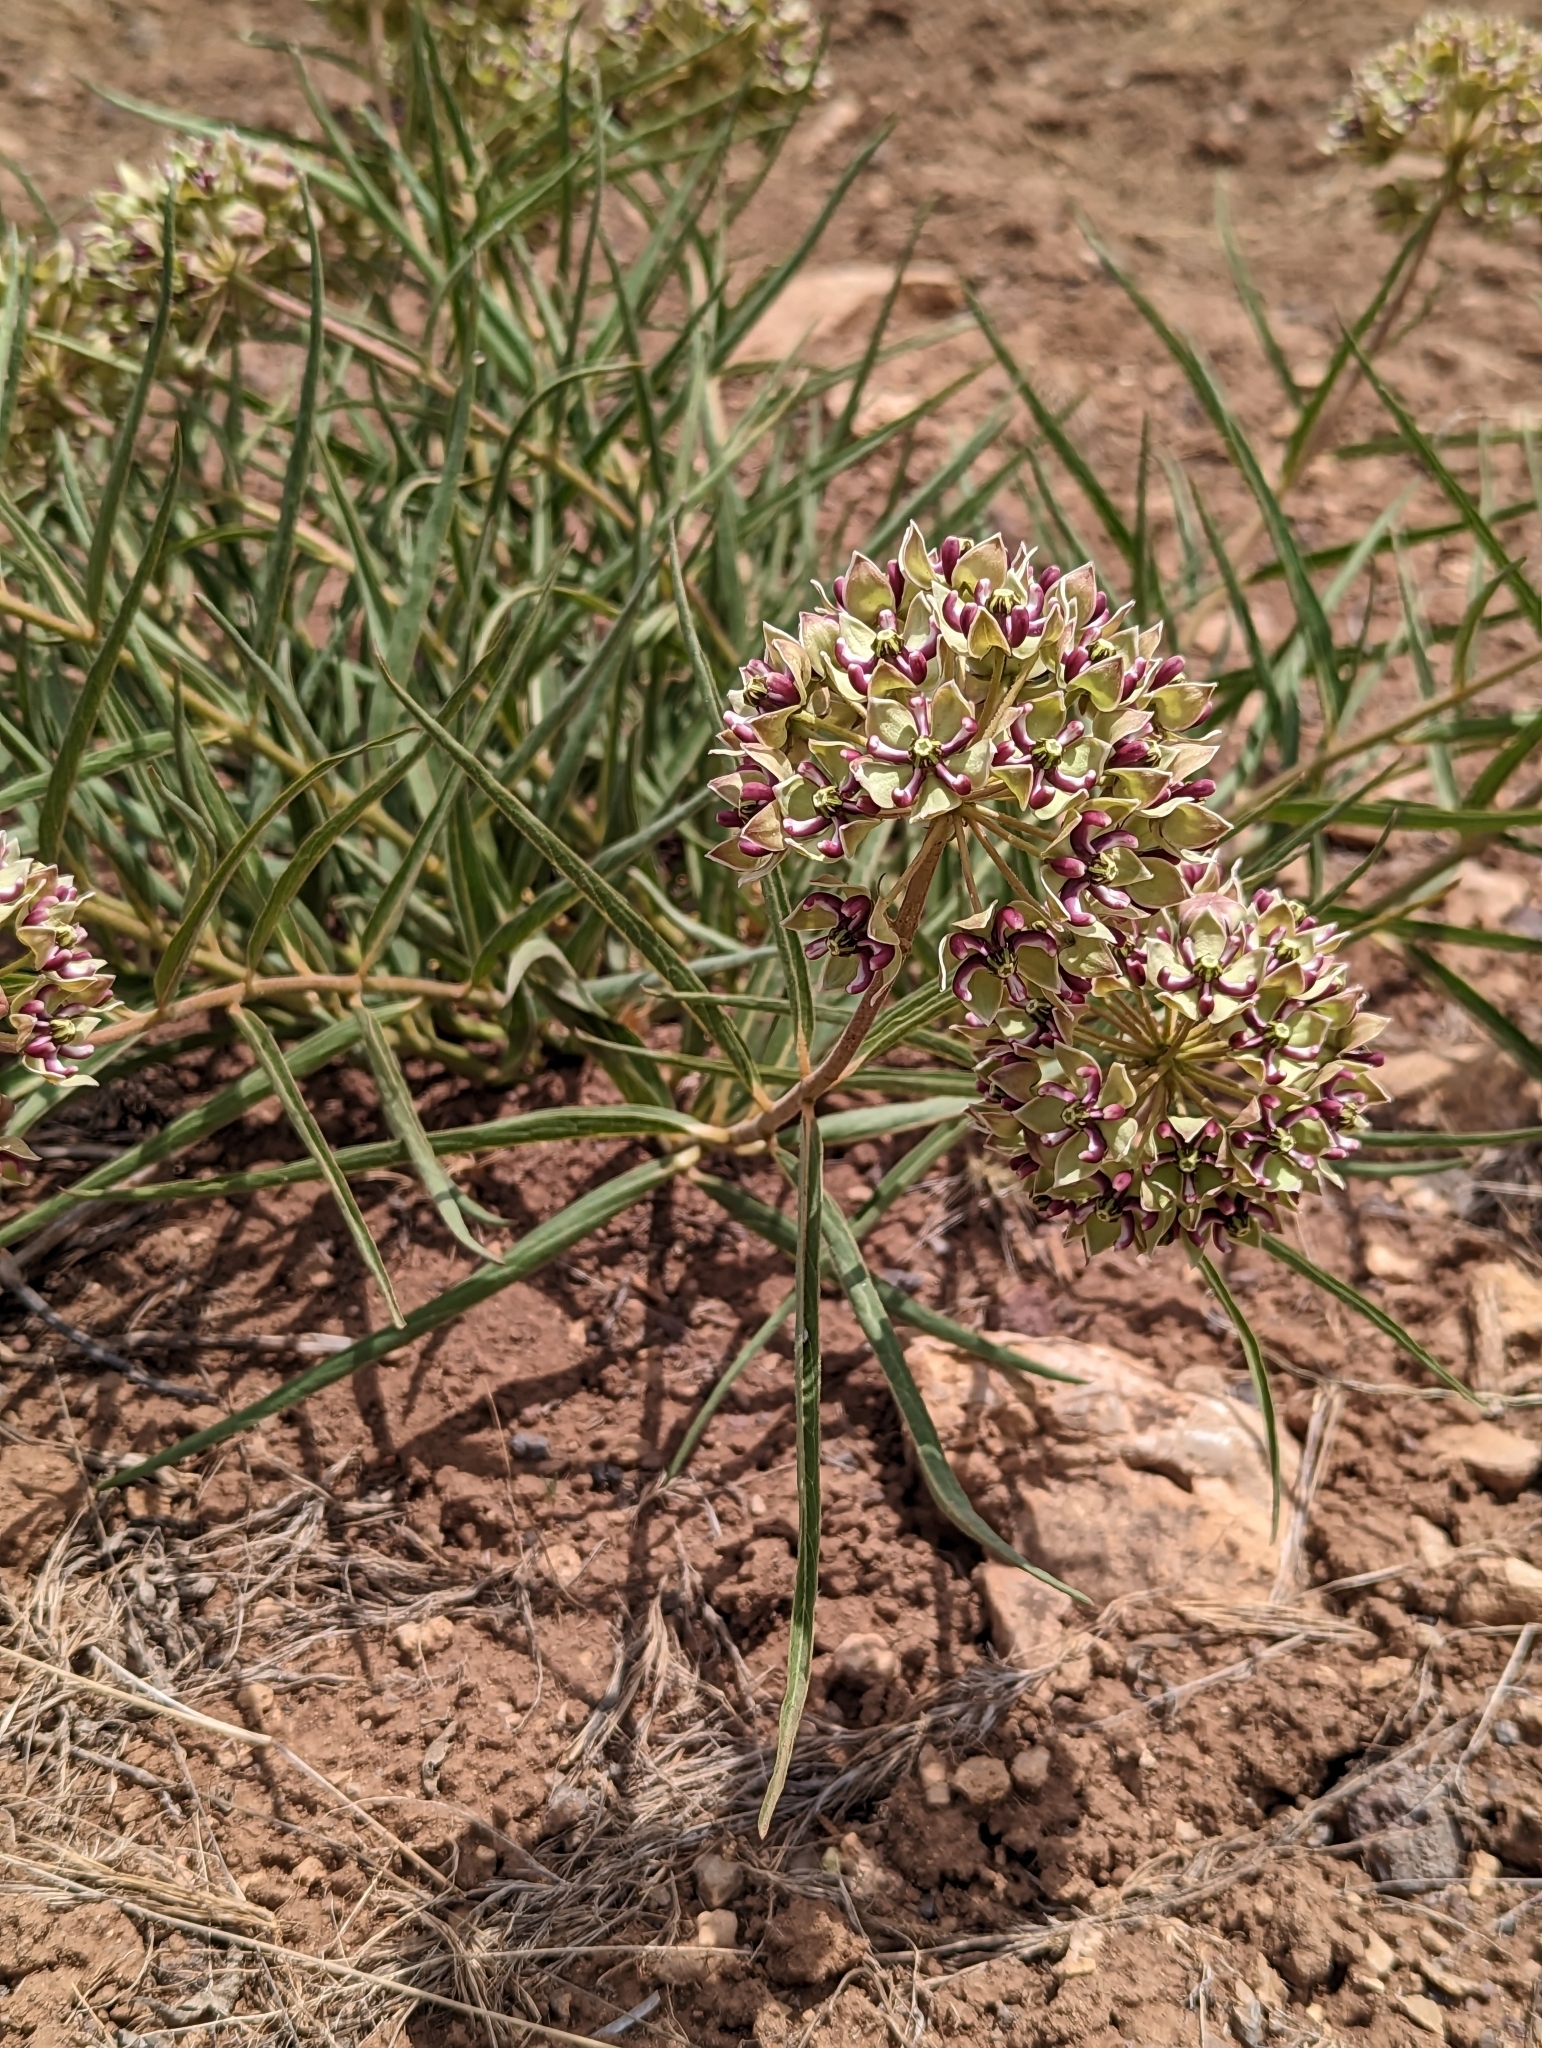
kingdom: Plantae
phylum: Tracheophyta
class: Magnoliopsida
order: Gentianales
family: Apocynaceae
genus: Asclepias
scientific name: Asclepias asperula
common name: Antelope horns
